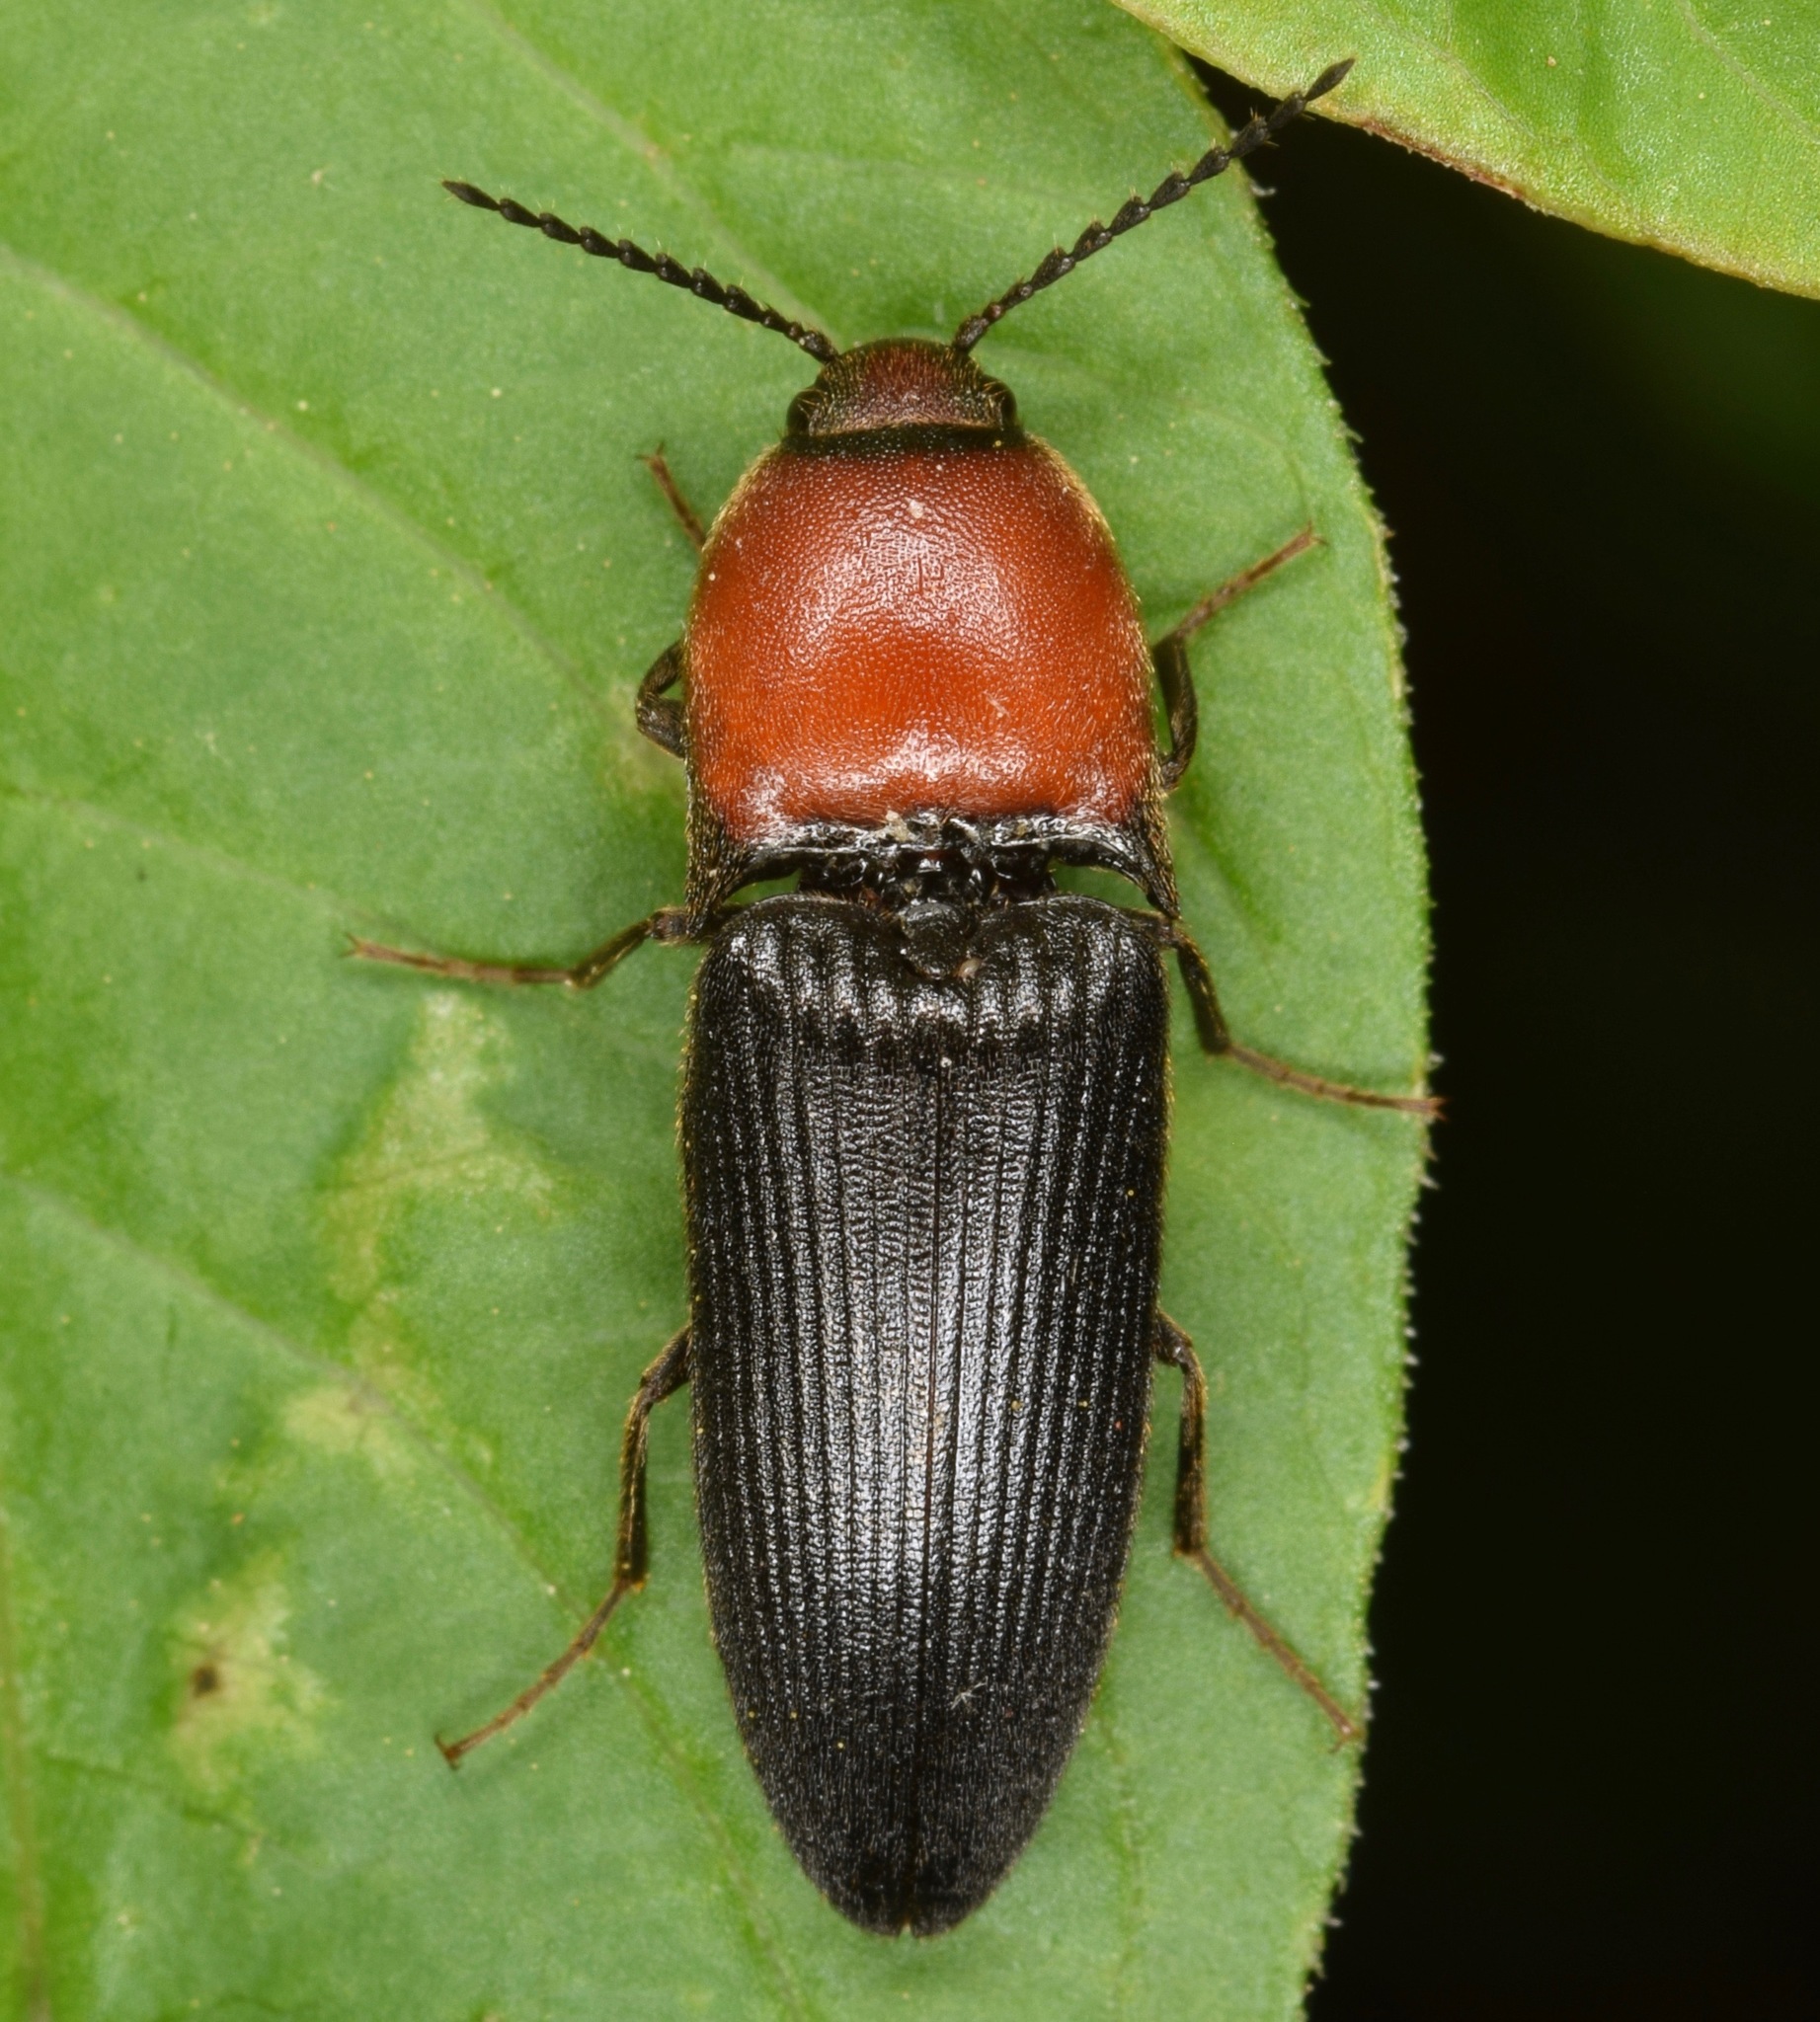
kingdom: Animalia
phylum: Arthropoda
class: Insecta
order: Coleoptera
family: Elateridae
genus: Ampedus
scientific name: Ampedus rubricollis
